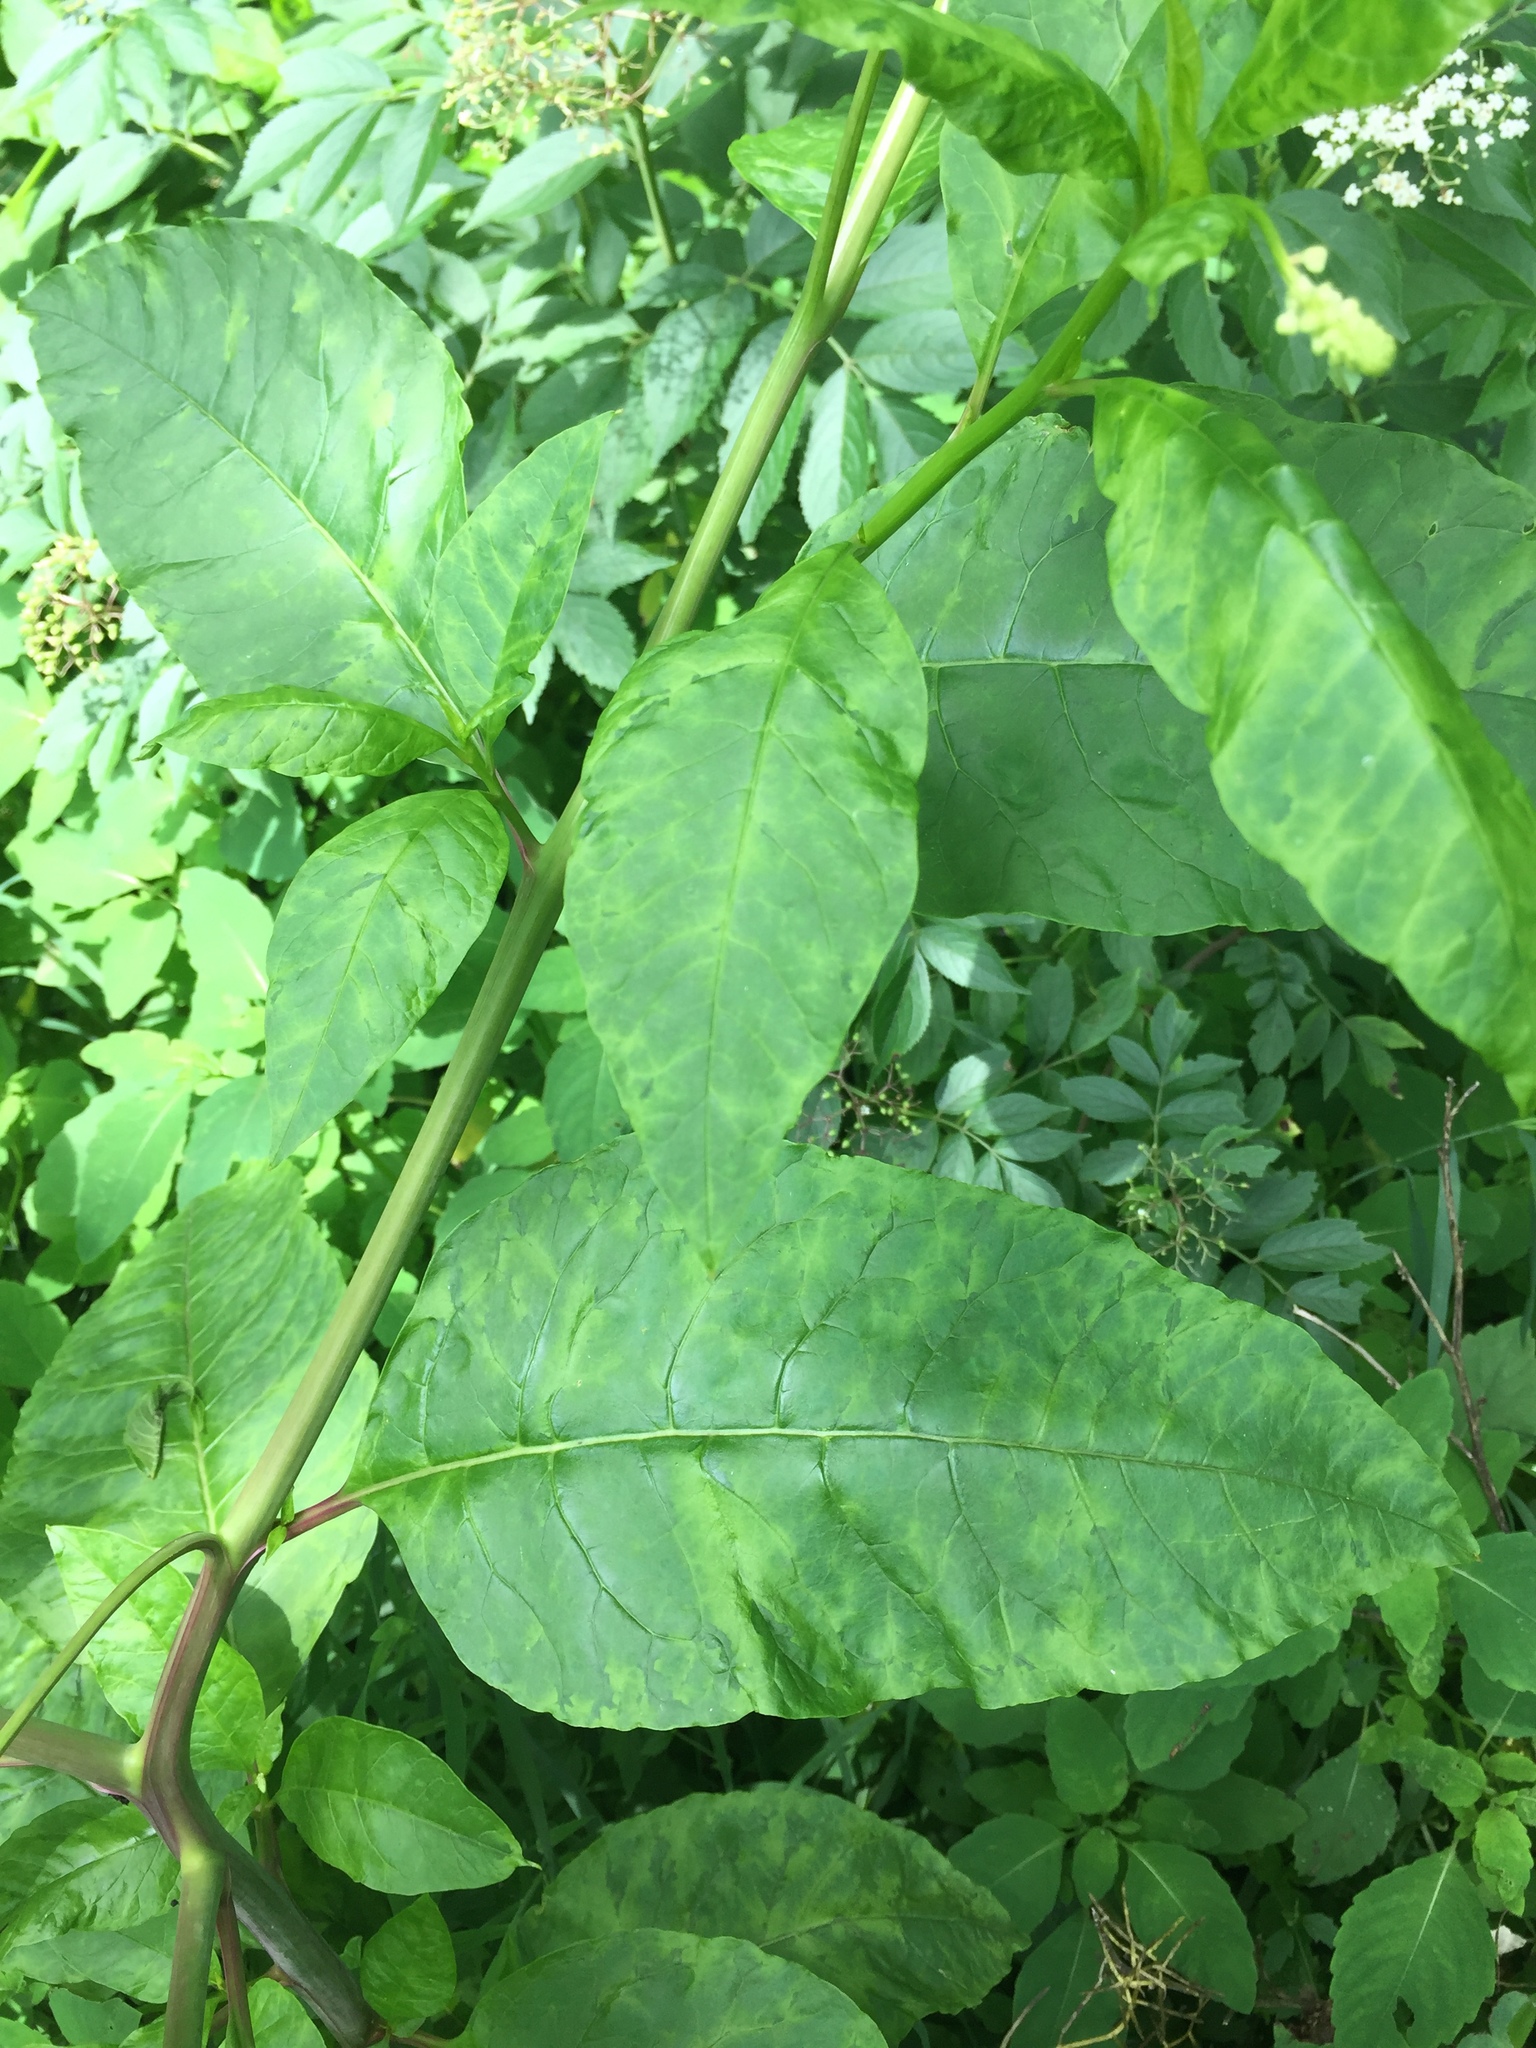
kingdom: Plantae
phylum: Tracheophyta
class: Magnoliopsida
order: Caryophyllales
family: Phytolaccaceae
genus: Phytolacca
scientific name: Phytolacca americana
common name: American pokeweed
